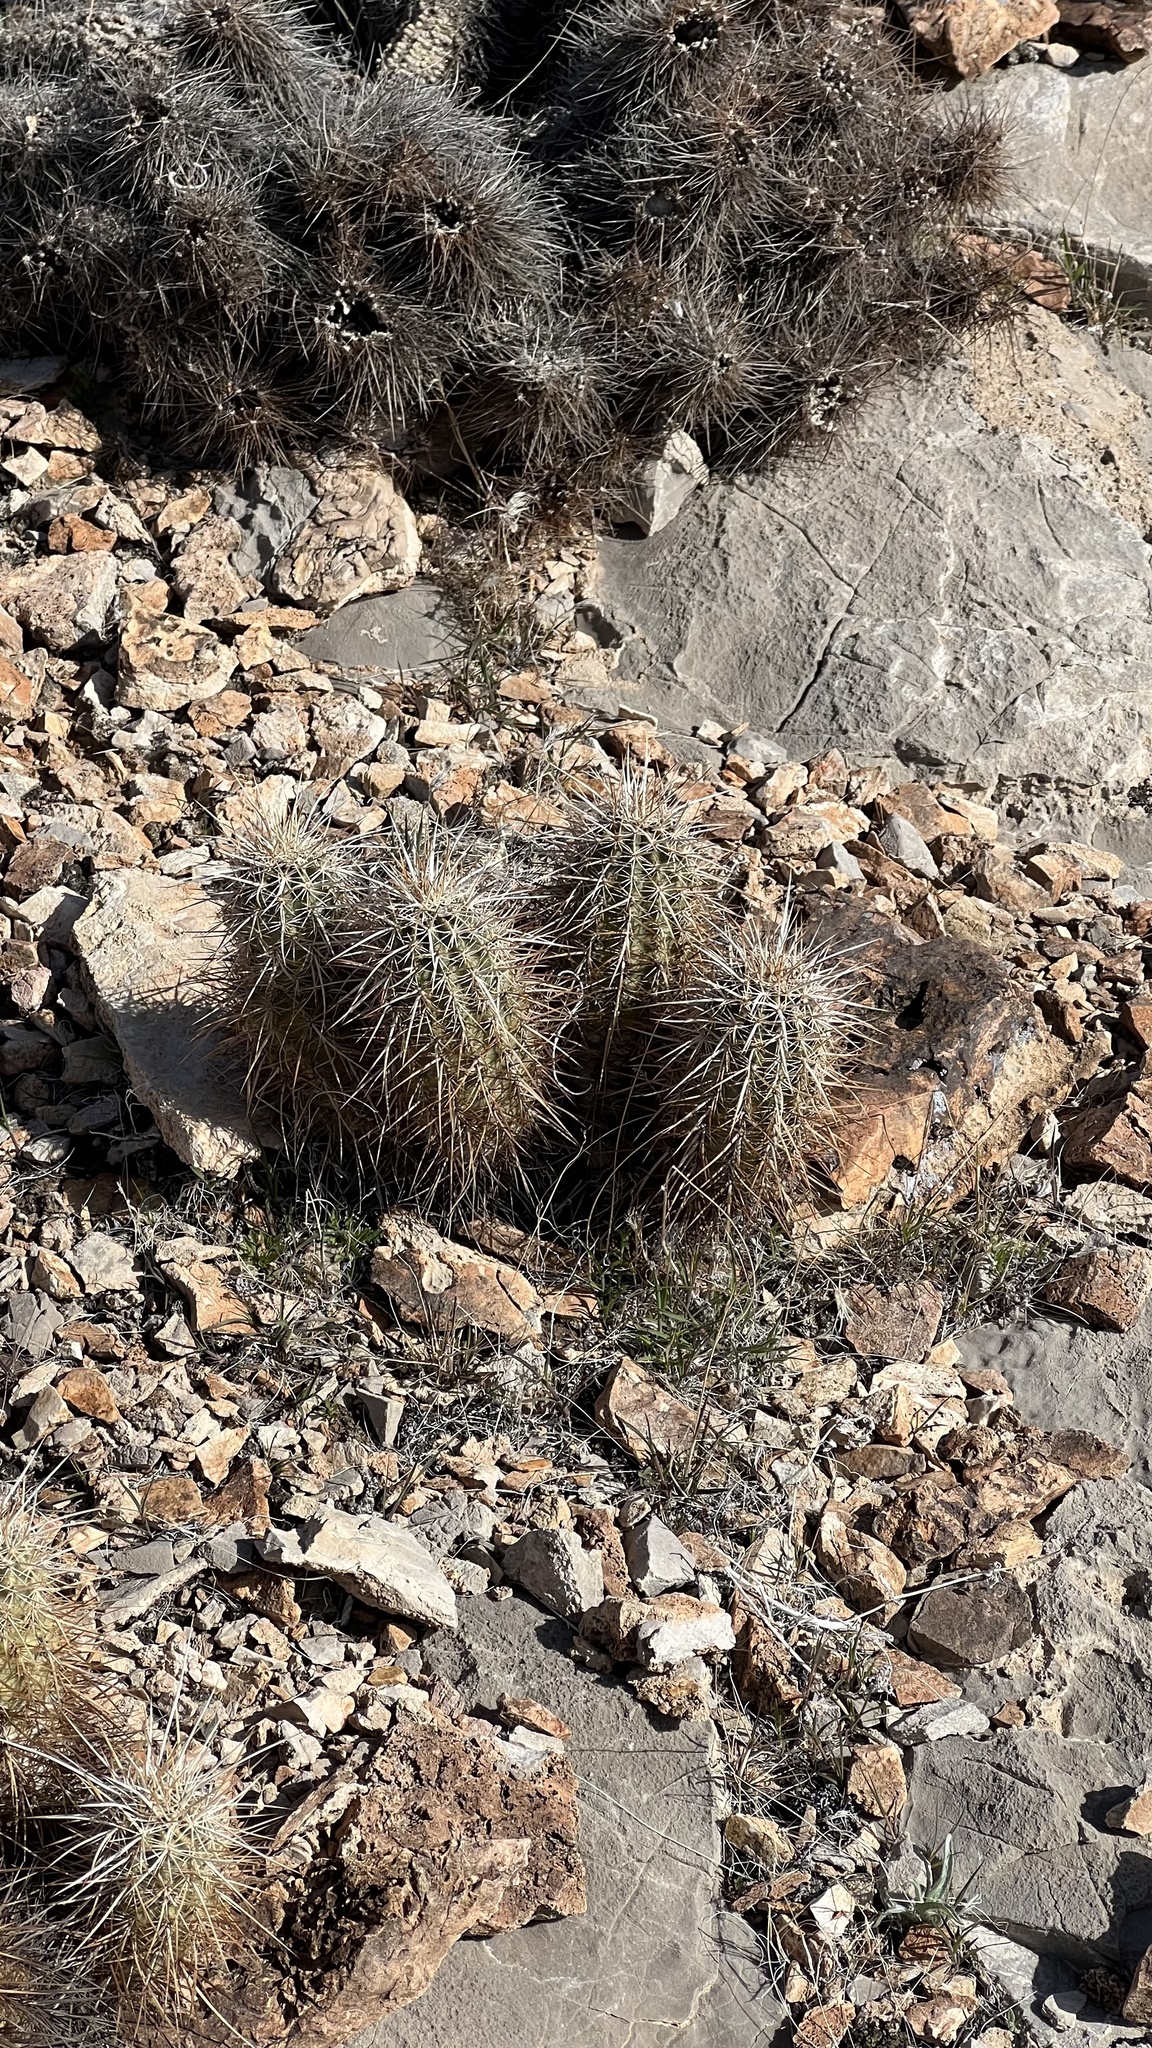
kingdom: Plantae
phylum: Tracheophyta
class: Magnoliopsida
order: Caryophyllales
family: Cactaceae
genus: Echinocereus
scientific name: Echinocereus engelmannii
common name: Engelmann's hedgehog cactus
